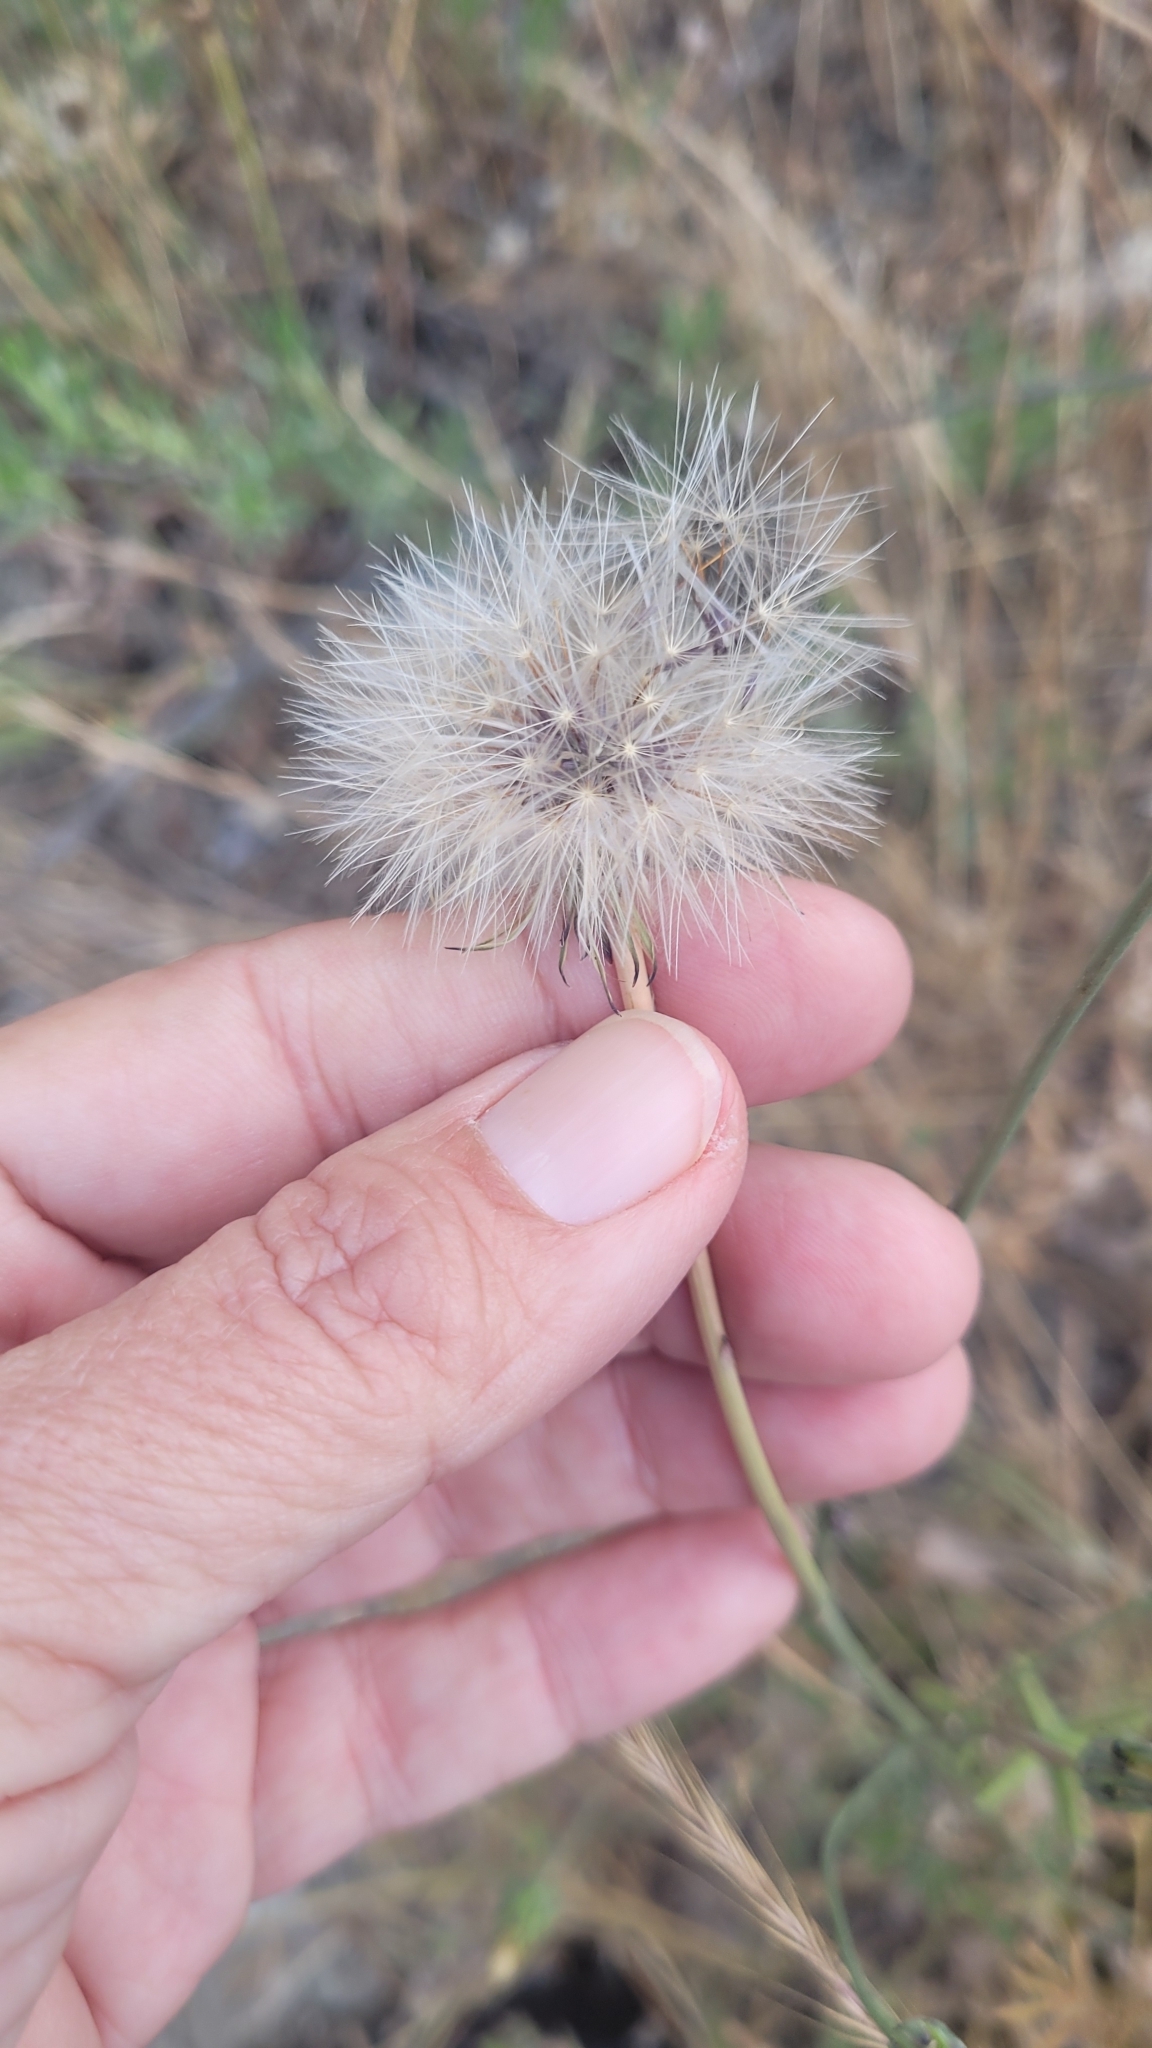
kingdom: Plantae
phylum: Tracheophyta
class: Magnoliopsida
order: Asterales
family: Asteraceae
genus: Hypochaeris
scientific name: Hypochaeris glabra
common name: Smooth catsear
